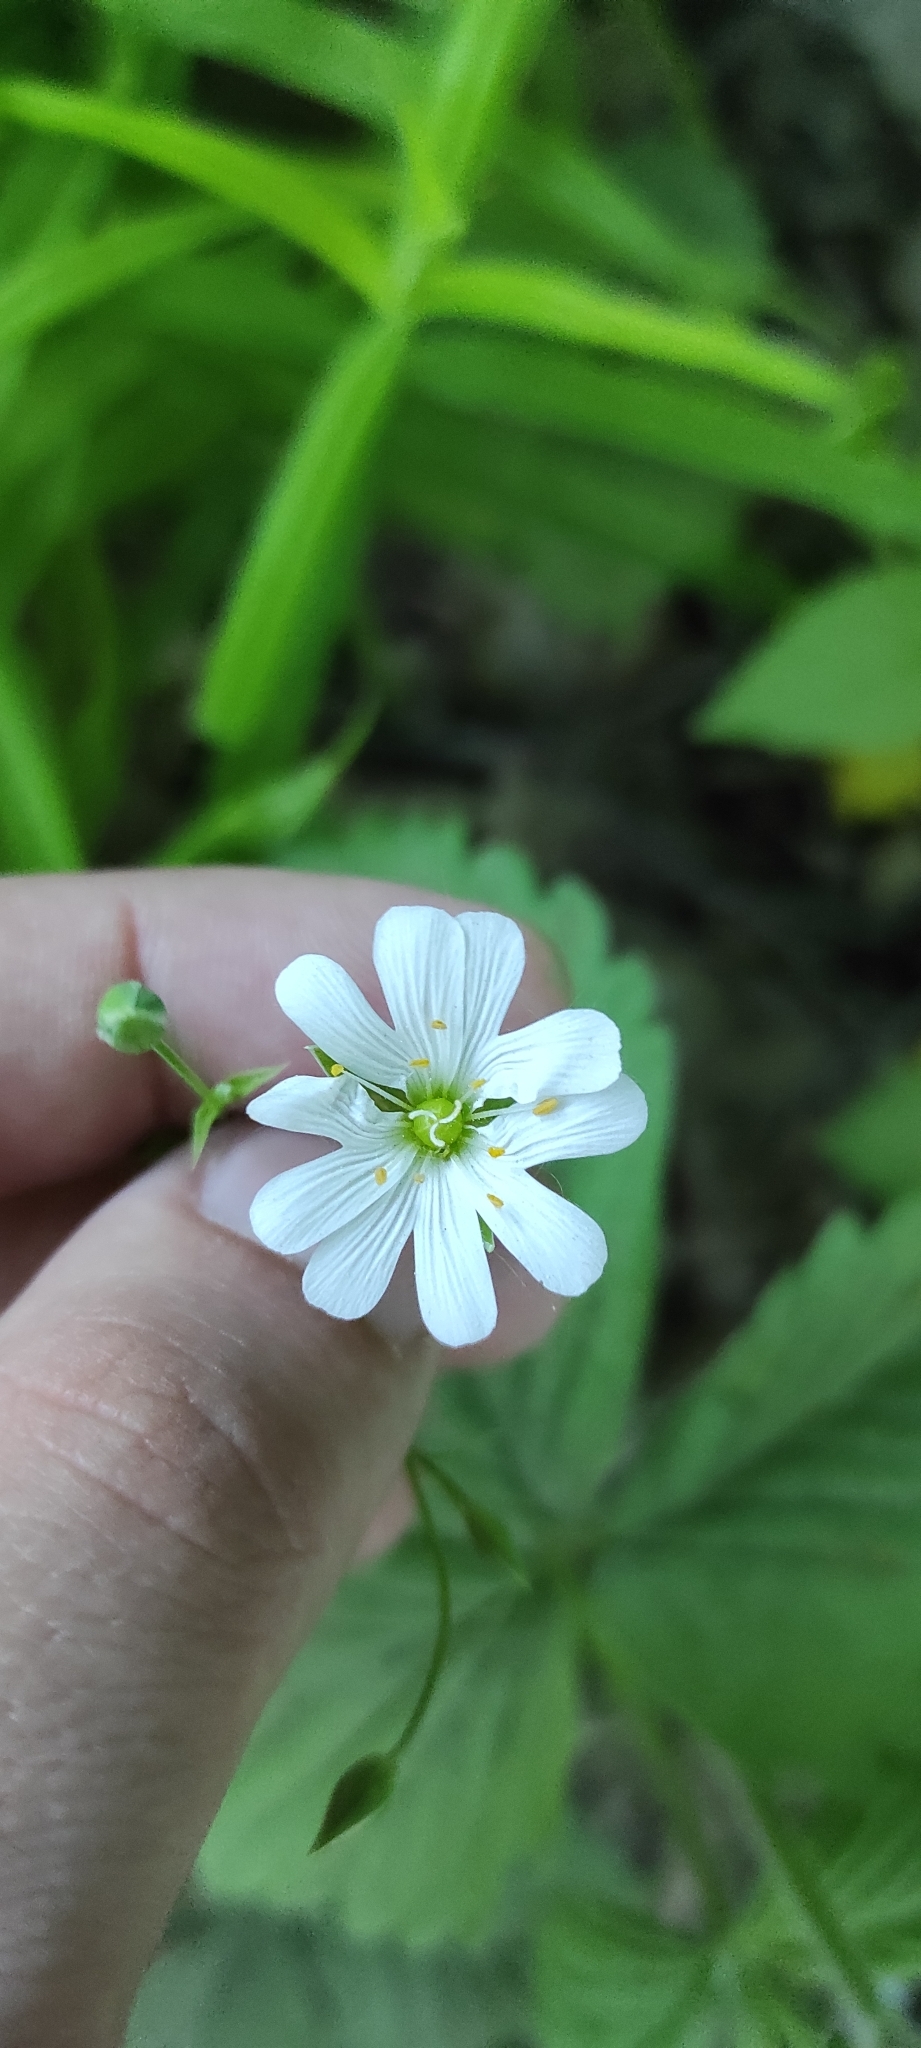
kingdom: Plantae
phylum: Tracheophyta
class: Magnoliopsida
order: Caryophyllales
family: Caryophyllaceae
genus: Rabelera
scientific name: Rabelera holostea
